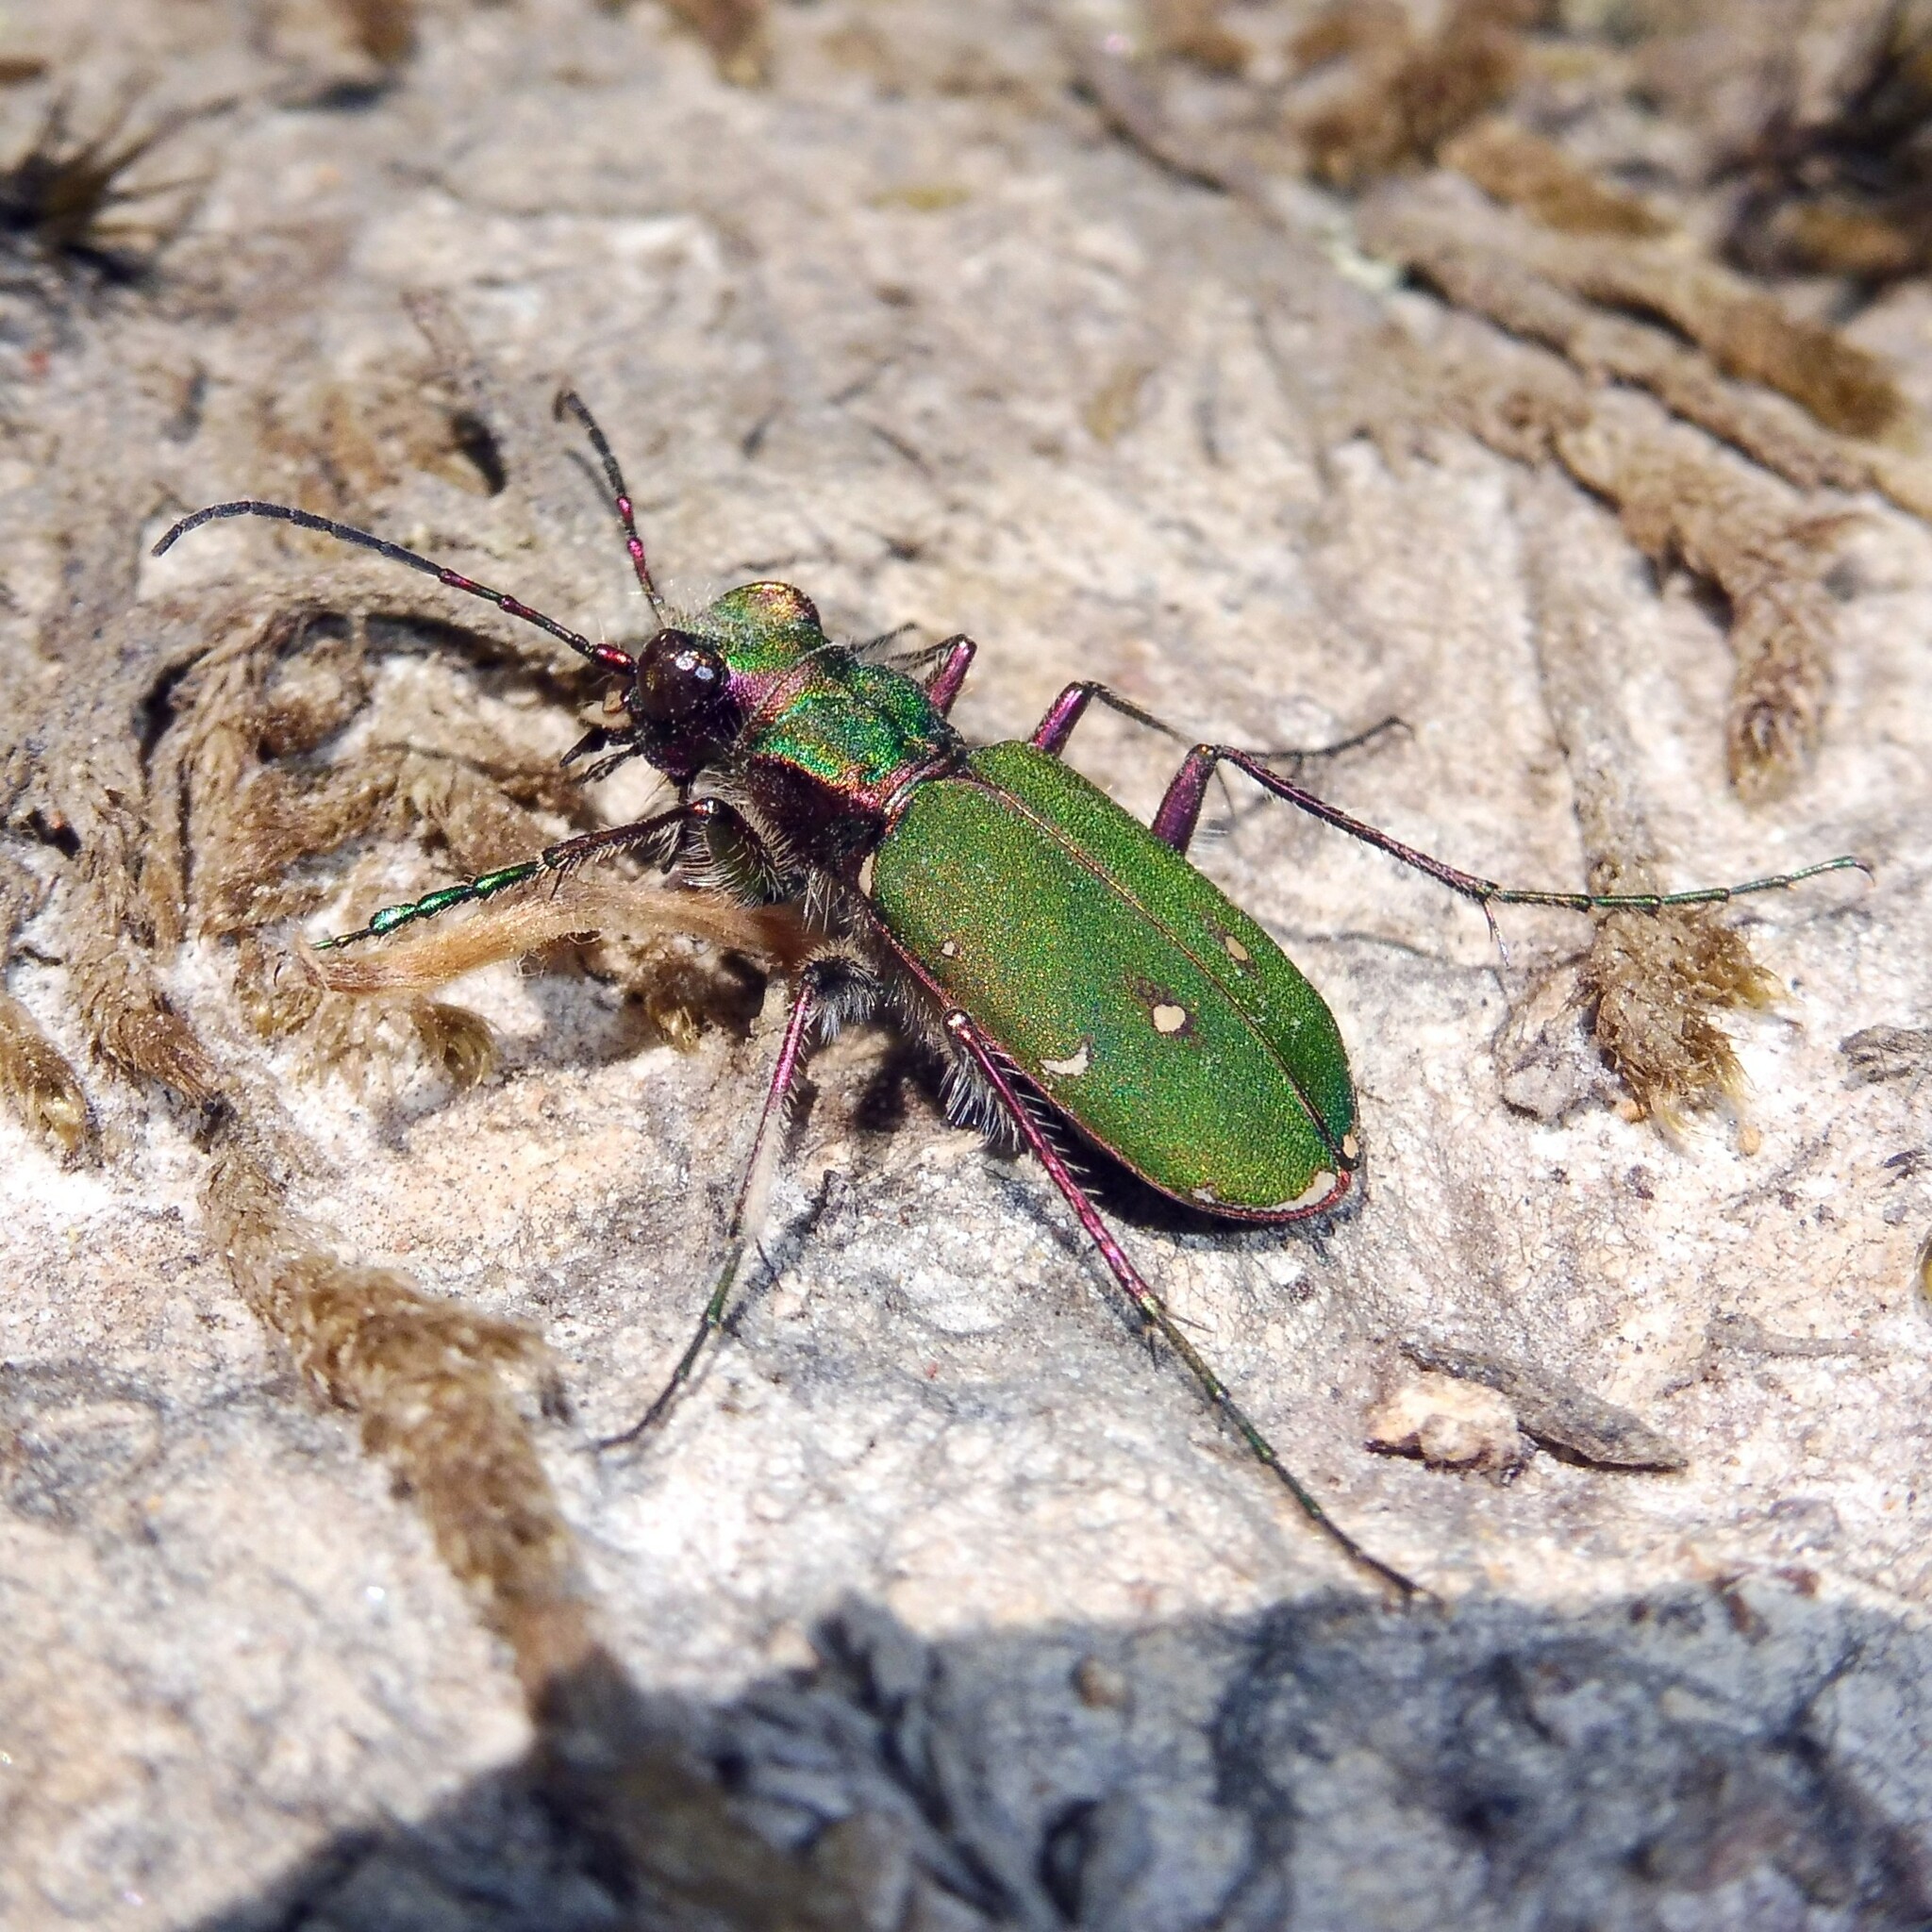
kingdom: Animalia
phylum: Arthropoda
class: Insecta
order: Coleoptera
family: Carabidae
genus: Cicindela
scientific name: Cicindela campestris
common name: Common tiger beetle
